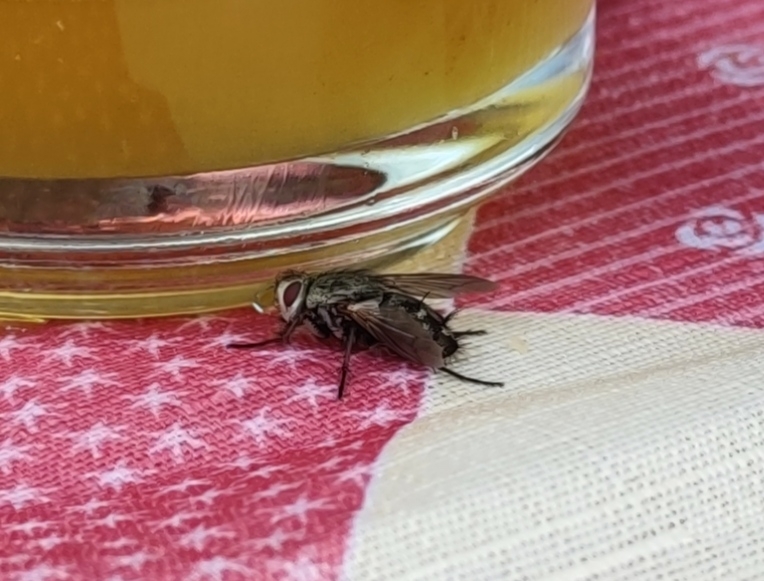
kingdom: Animalia
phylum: Arthropoda
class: Insecta
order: Diptera
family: Tachinidae
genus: Microphthalma
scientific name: Microphthalma europaea
